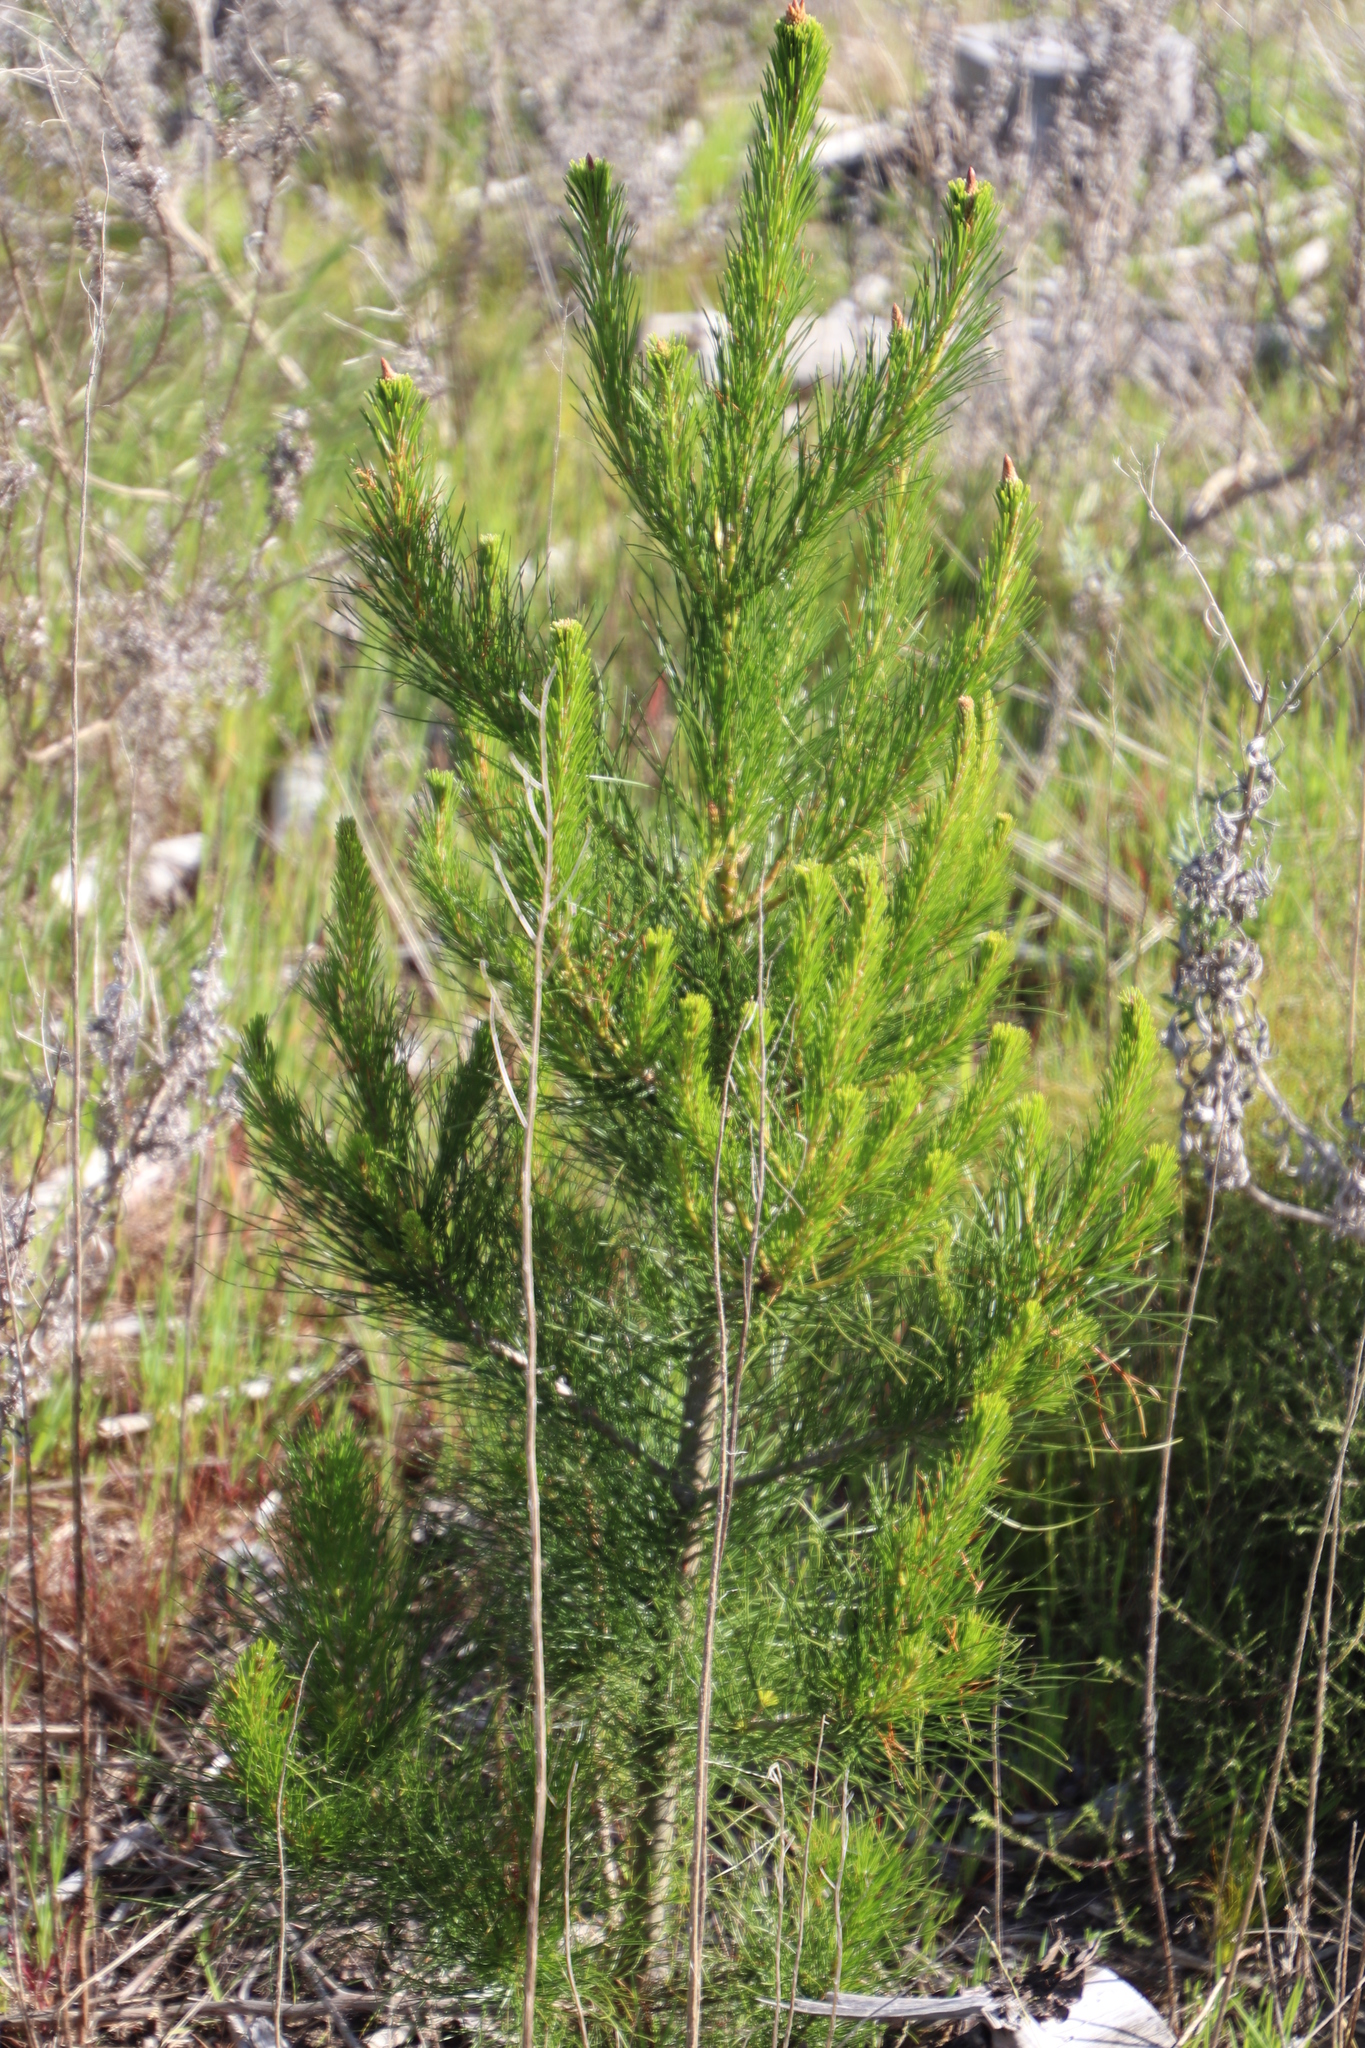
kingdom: Plantae
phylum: Tracheophyta
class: Pinopsida
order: Pinales
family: Pinaceae
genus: Pinus
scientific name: Pinus radiata
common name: Monterey pine
